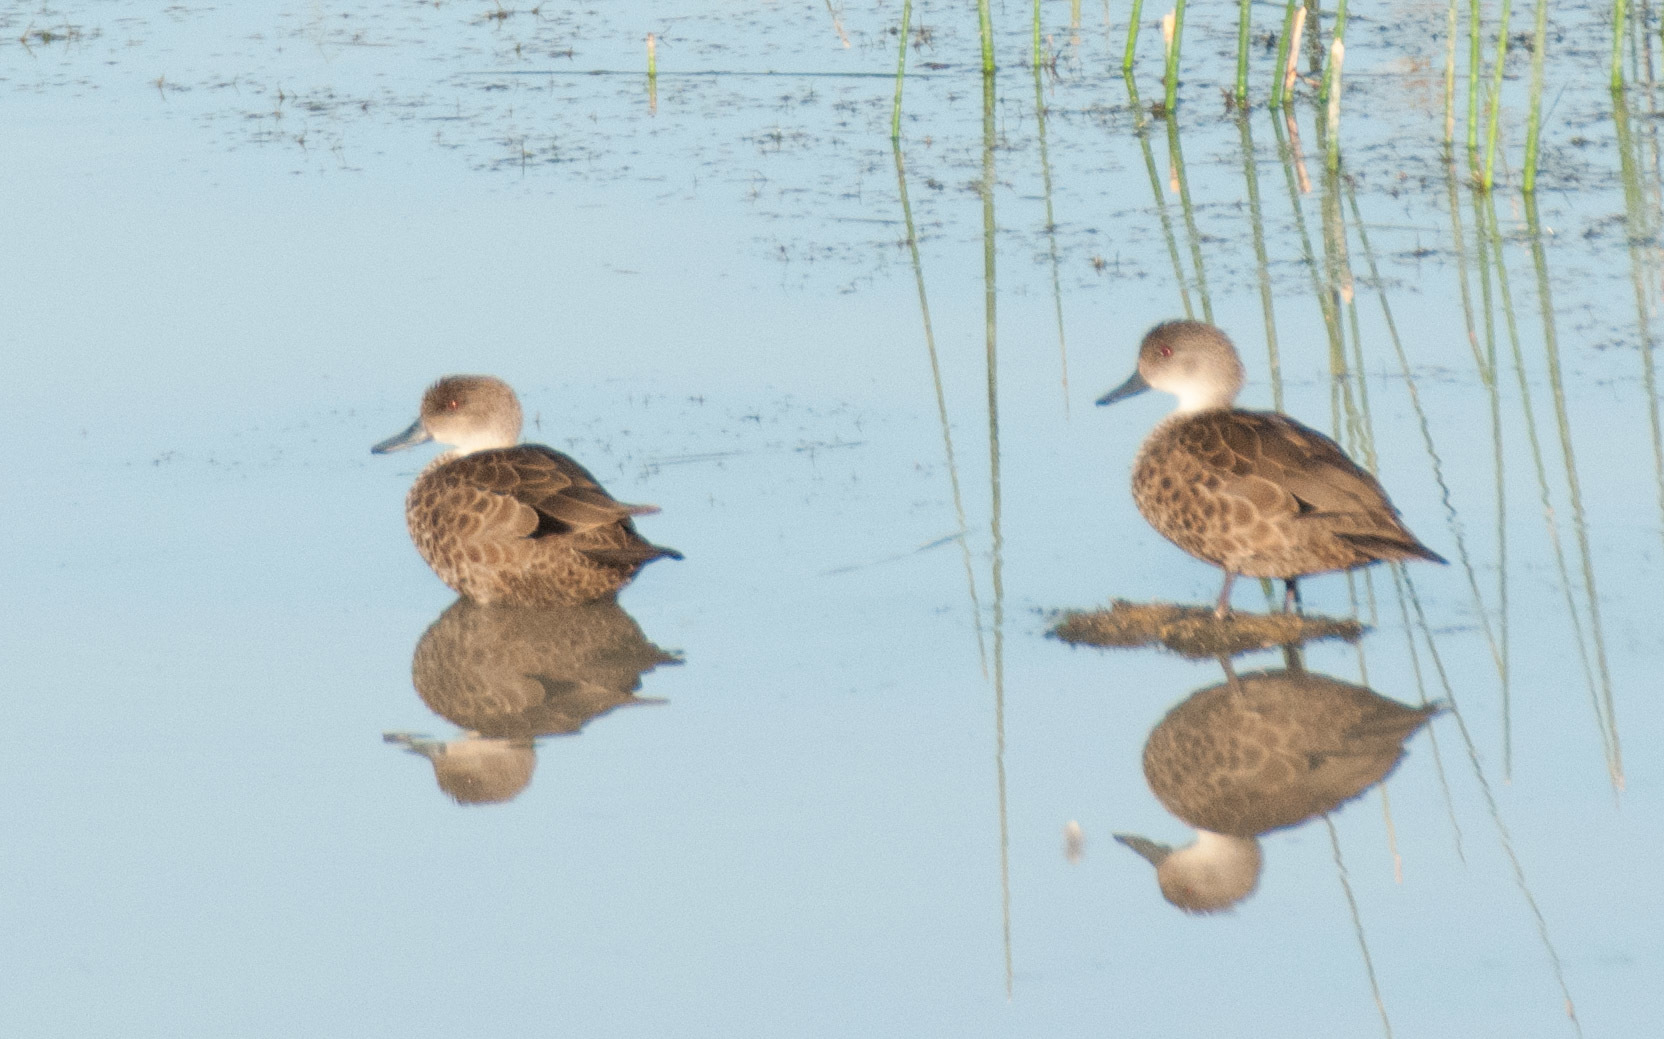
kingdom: Animalia
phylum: Chordata
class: Aves
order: Anseriformes
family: Anatidae
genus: Anas
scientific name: Anas gracilis
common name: Grey teal
